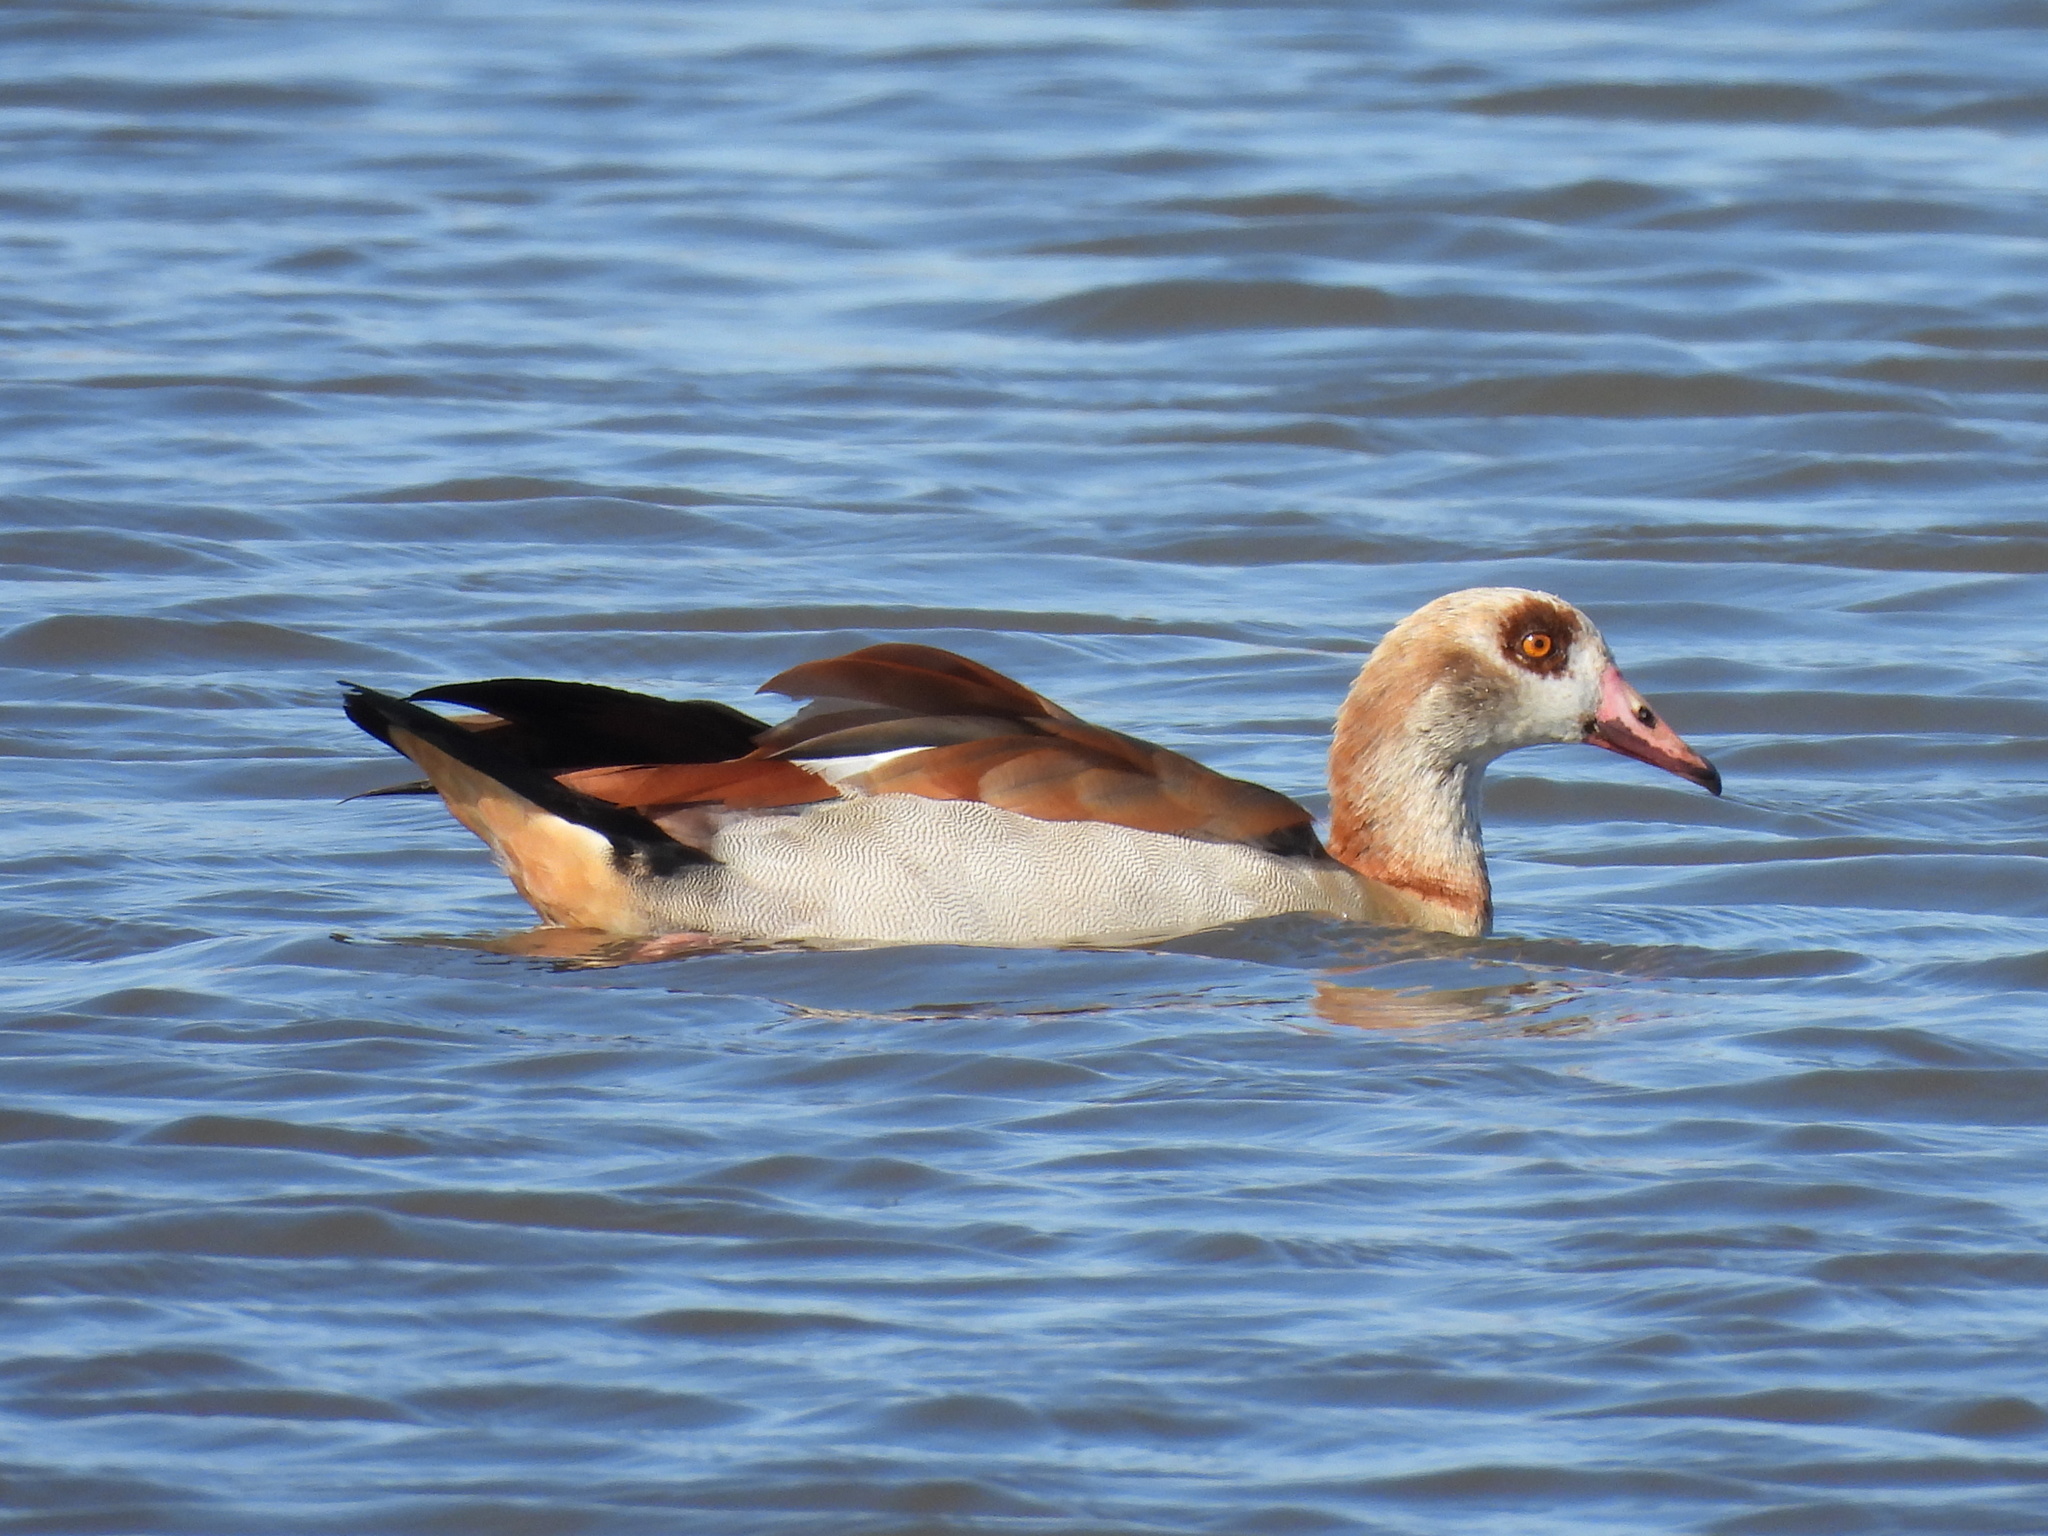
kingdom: Animalia
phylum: Chordata
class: Aves
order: Anseriformes
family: Anatidae
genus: Alopochen
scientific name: Alopochen aegyptiaca
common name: Egyptian goose
